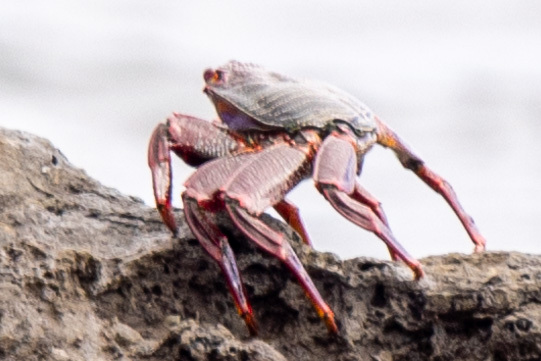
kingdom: Animalia
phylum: Arthropoda
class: Malacostraca
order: Decapoda
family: Grapsidae
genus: Grapsus
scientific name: Grapsus adscensionis
